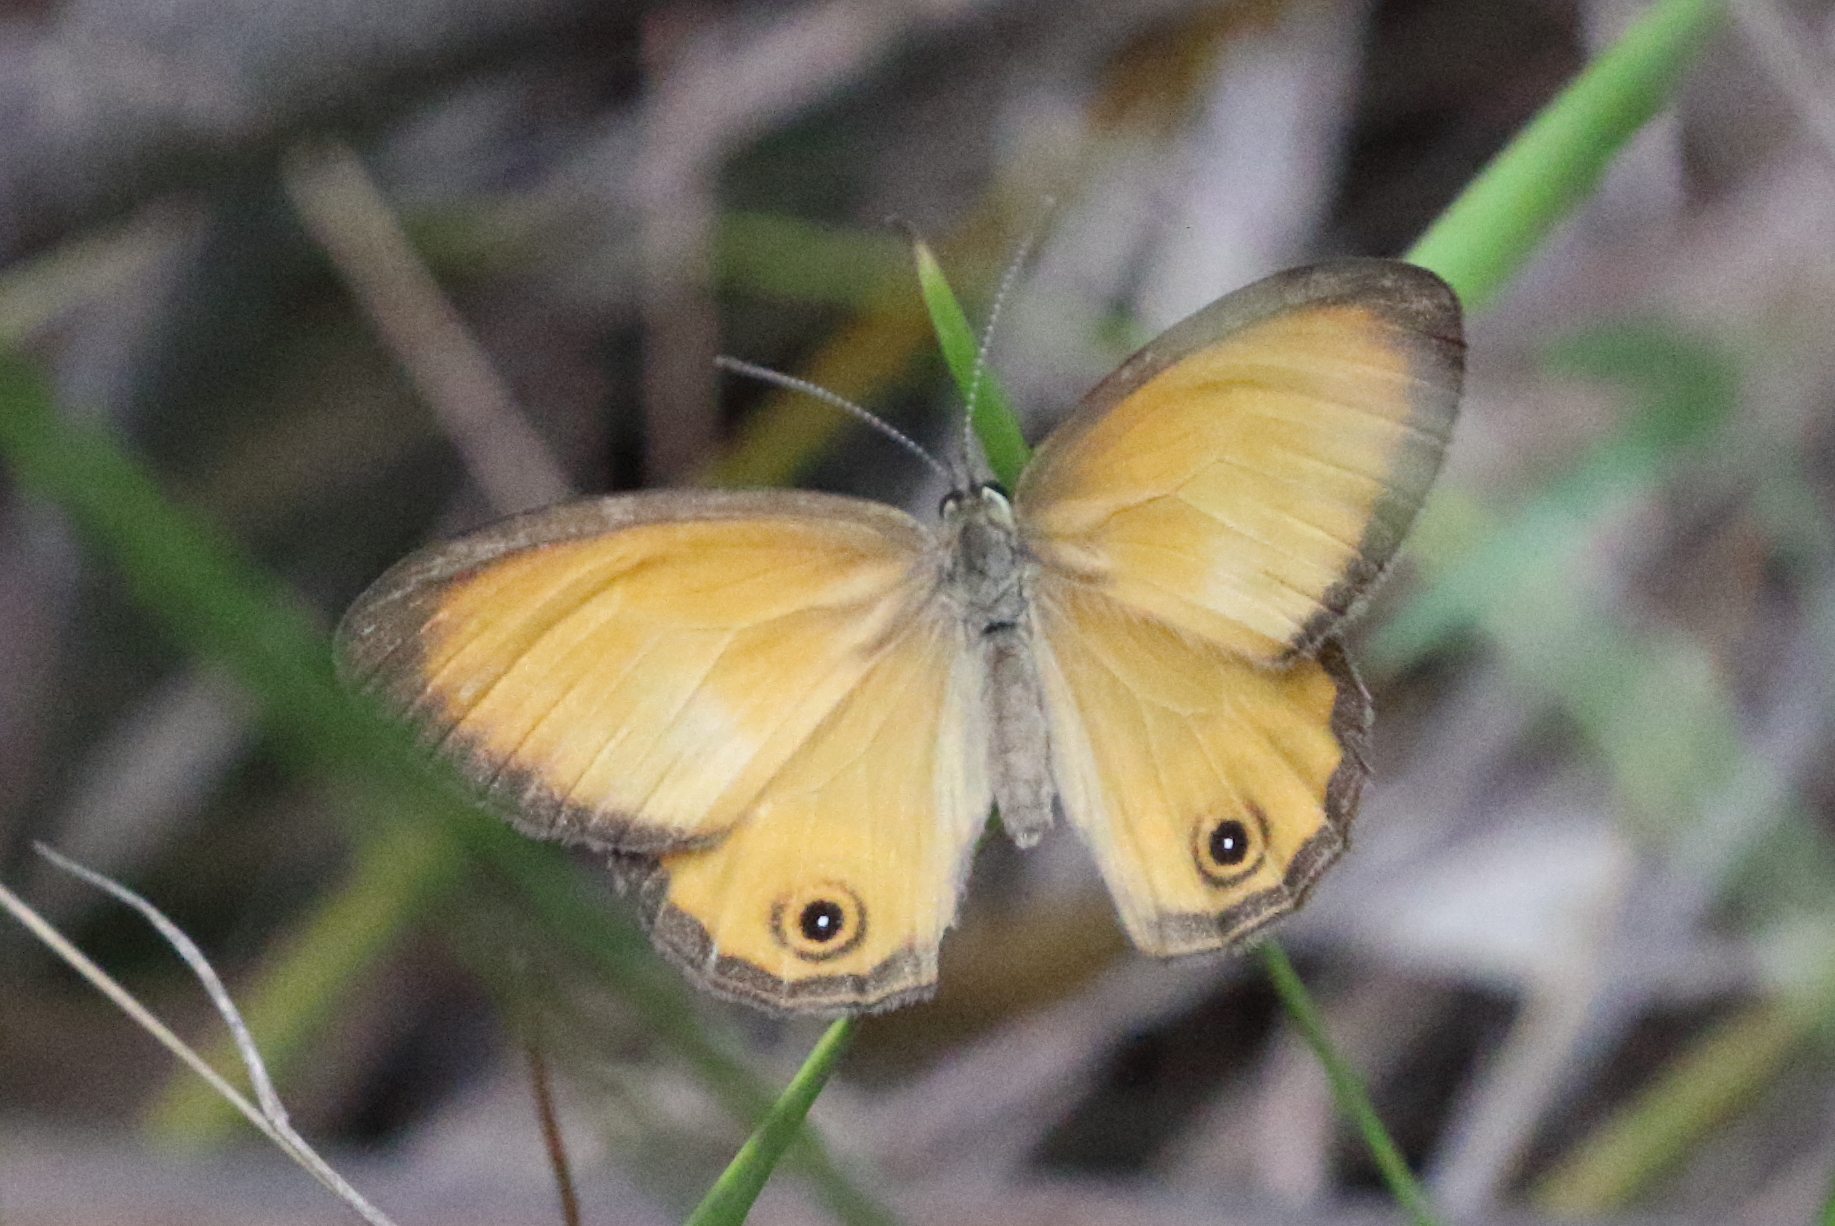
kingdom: Animalia
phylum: Arthropoda
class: Insecta
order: Lepidoptera
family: Nymphalidae
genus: Hypocysta
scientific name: Hypocysta adiante
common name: Orange ringlet
